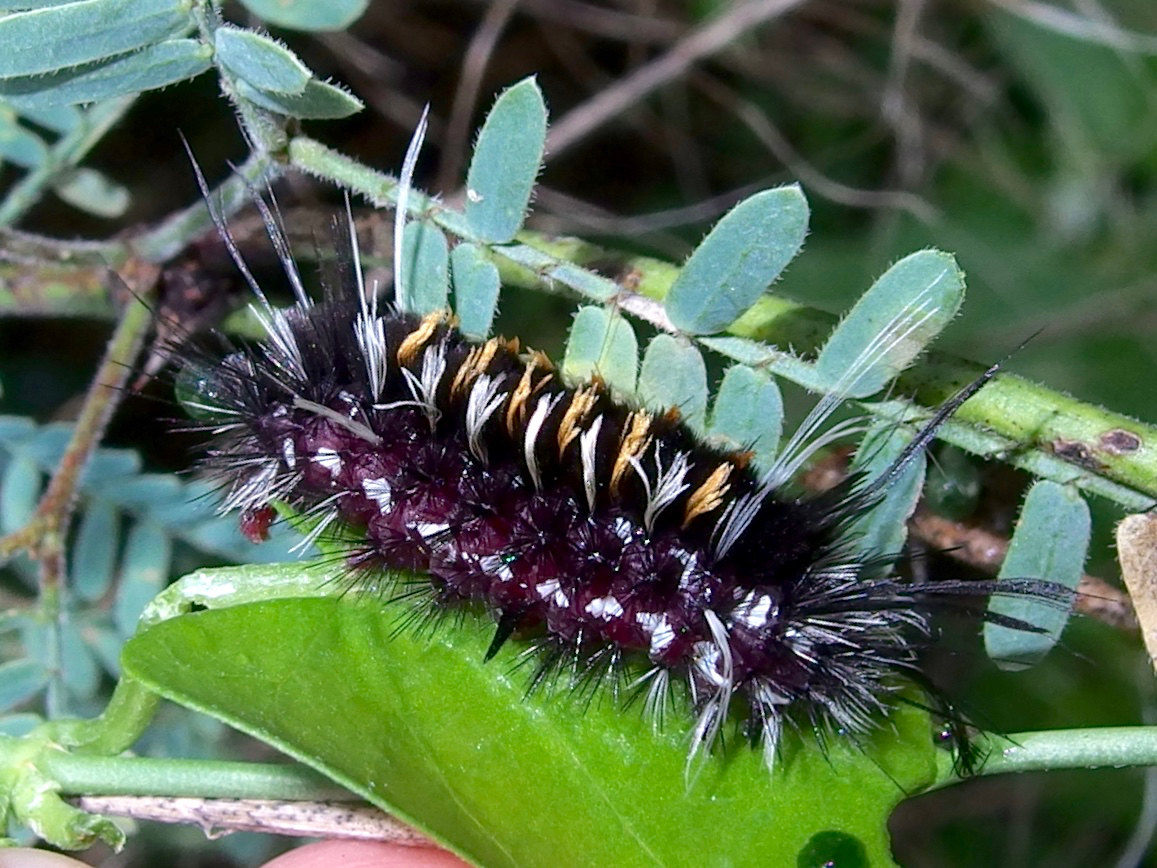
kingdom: Animalia
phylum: Arthropoda
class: Insecta
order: Lepidoptera
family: Erebidae
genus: Euchaetes
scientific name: Euchaetes
